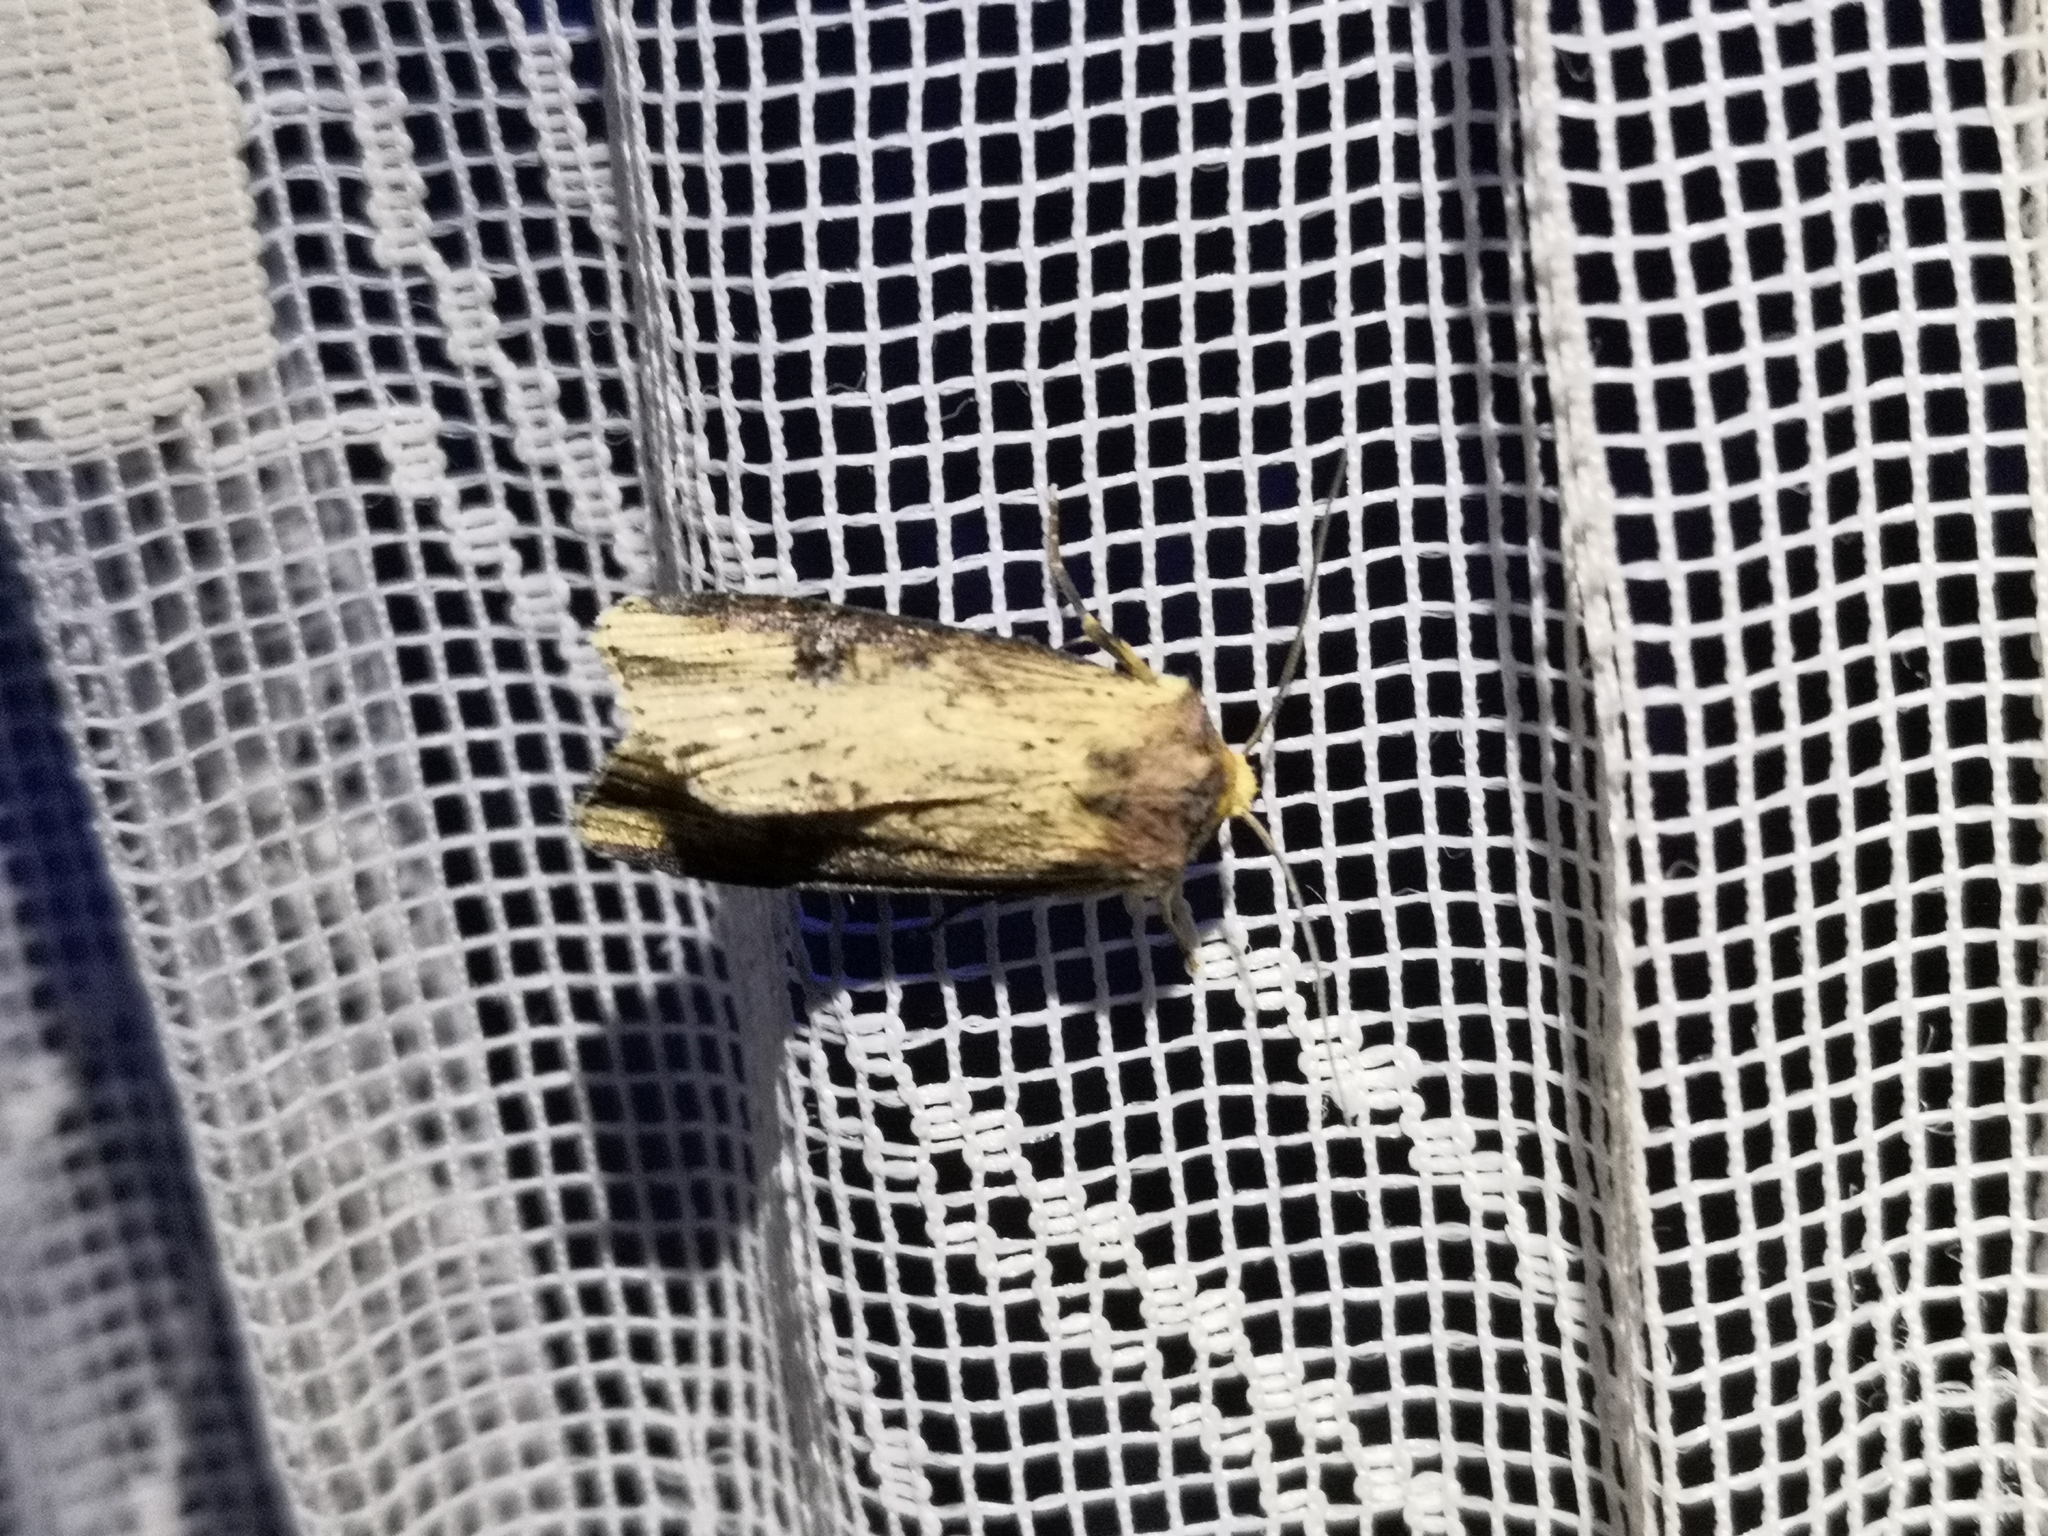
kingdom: Animalia
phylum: Arthropoda
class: Insecta
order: Lepidoptera
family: Noctuidae
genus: Axylia
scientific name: Axylia putris
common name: Flame
